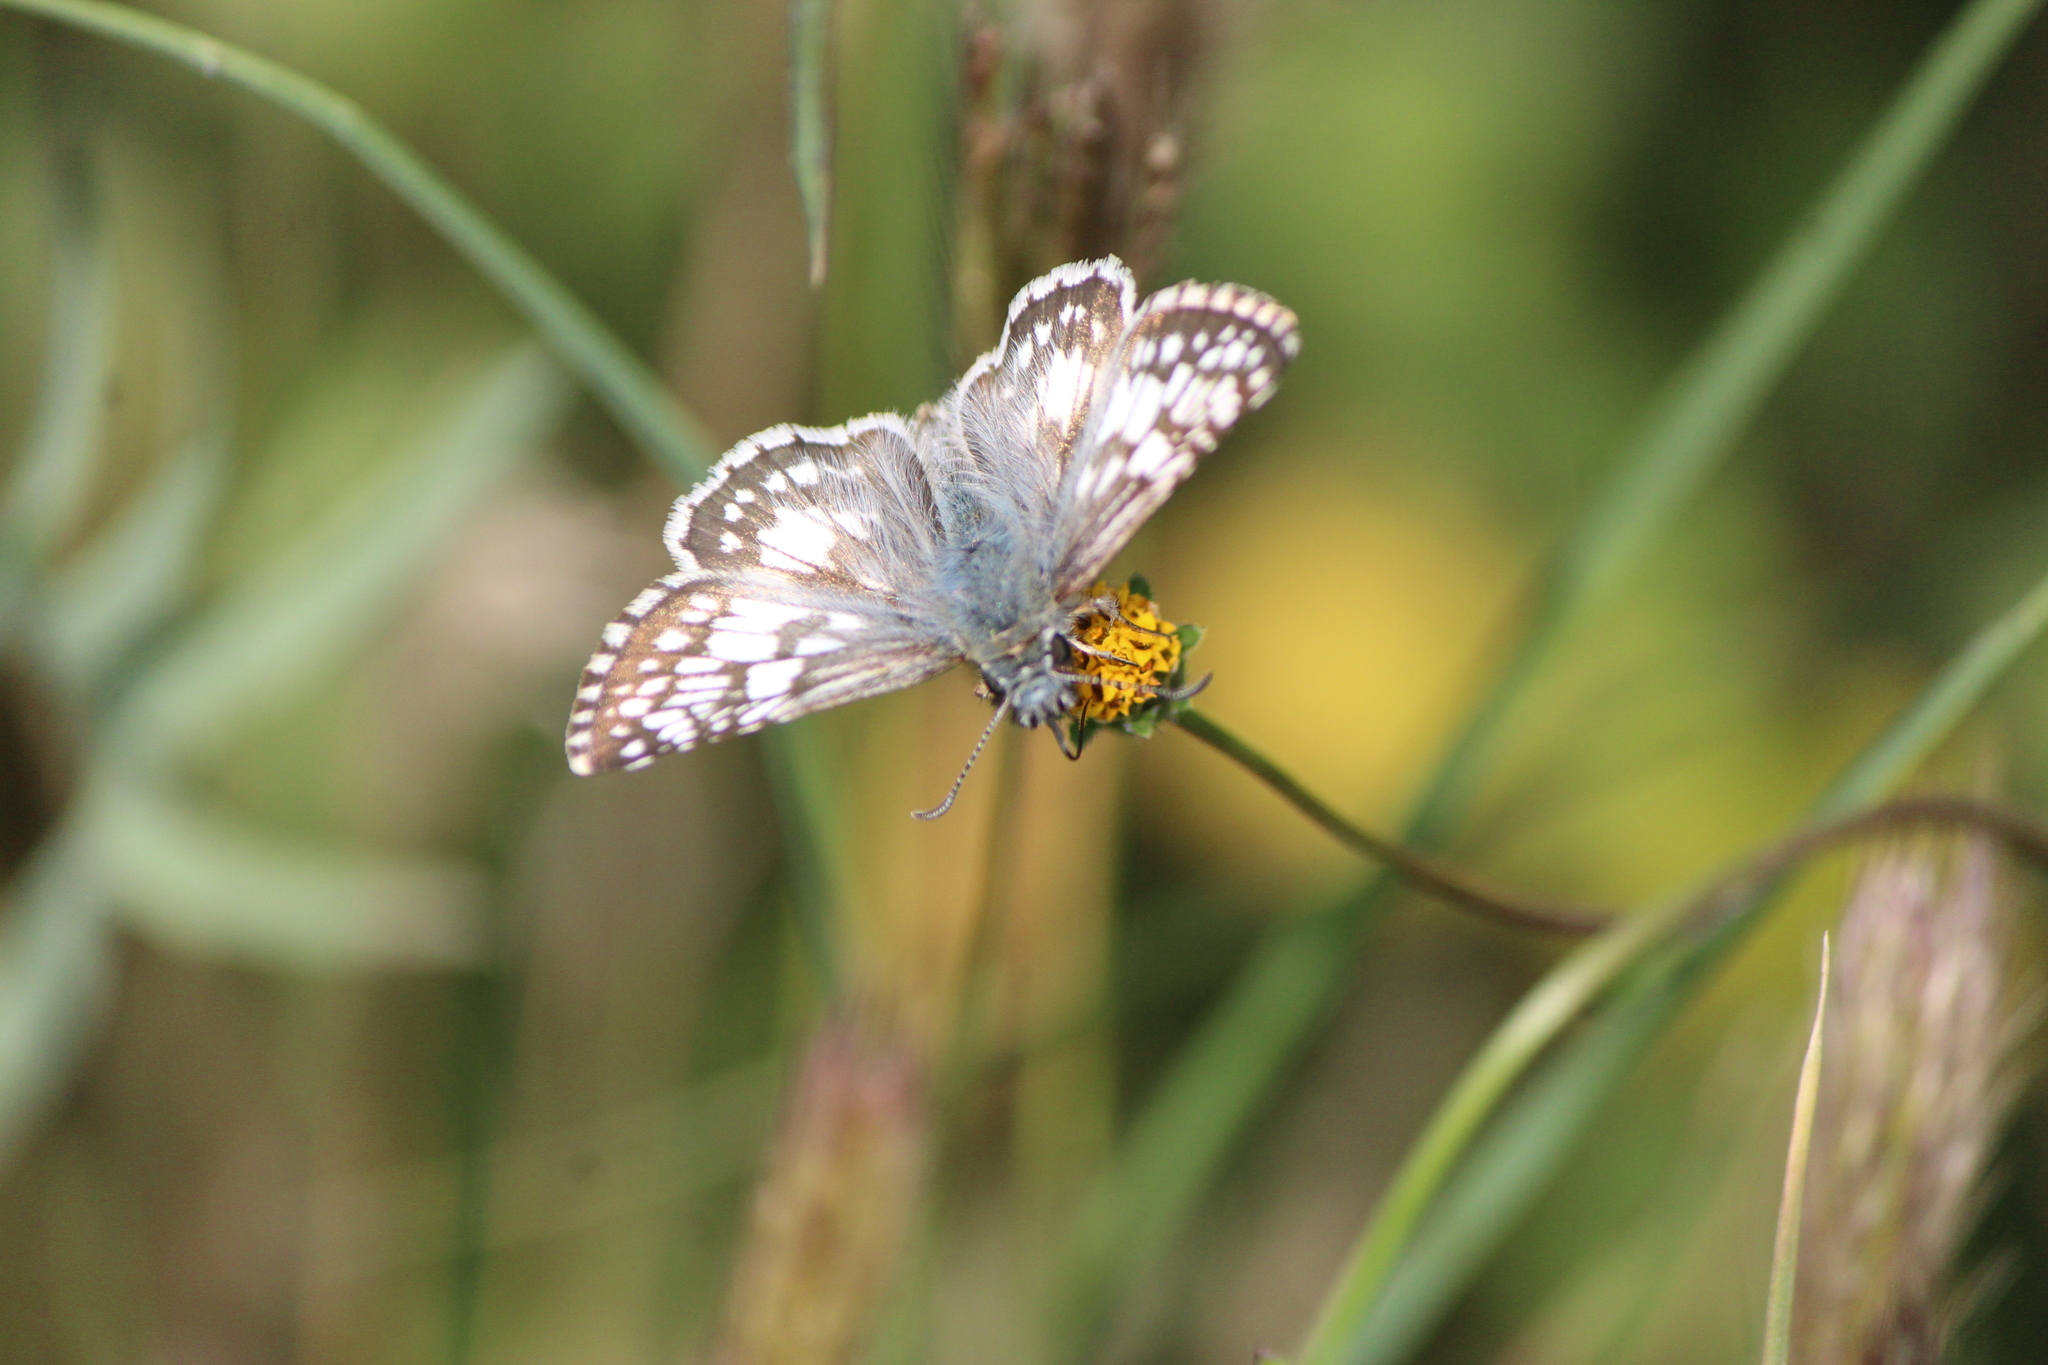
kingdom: Animalia
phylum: Arthropoda
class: Insecta
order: Lepidoptera
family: Hesperiidae
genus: Pyrgus
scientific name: Pyrgus oileus
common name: Tropical checkered-skipper
